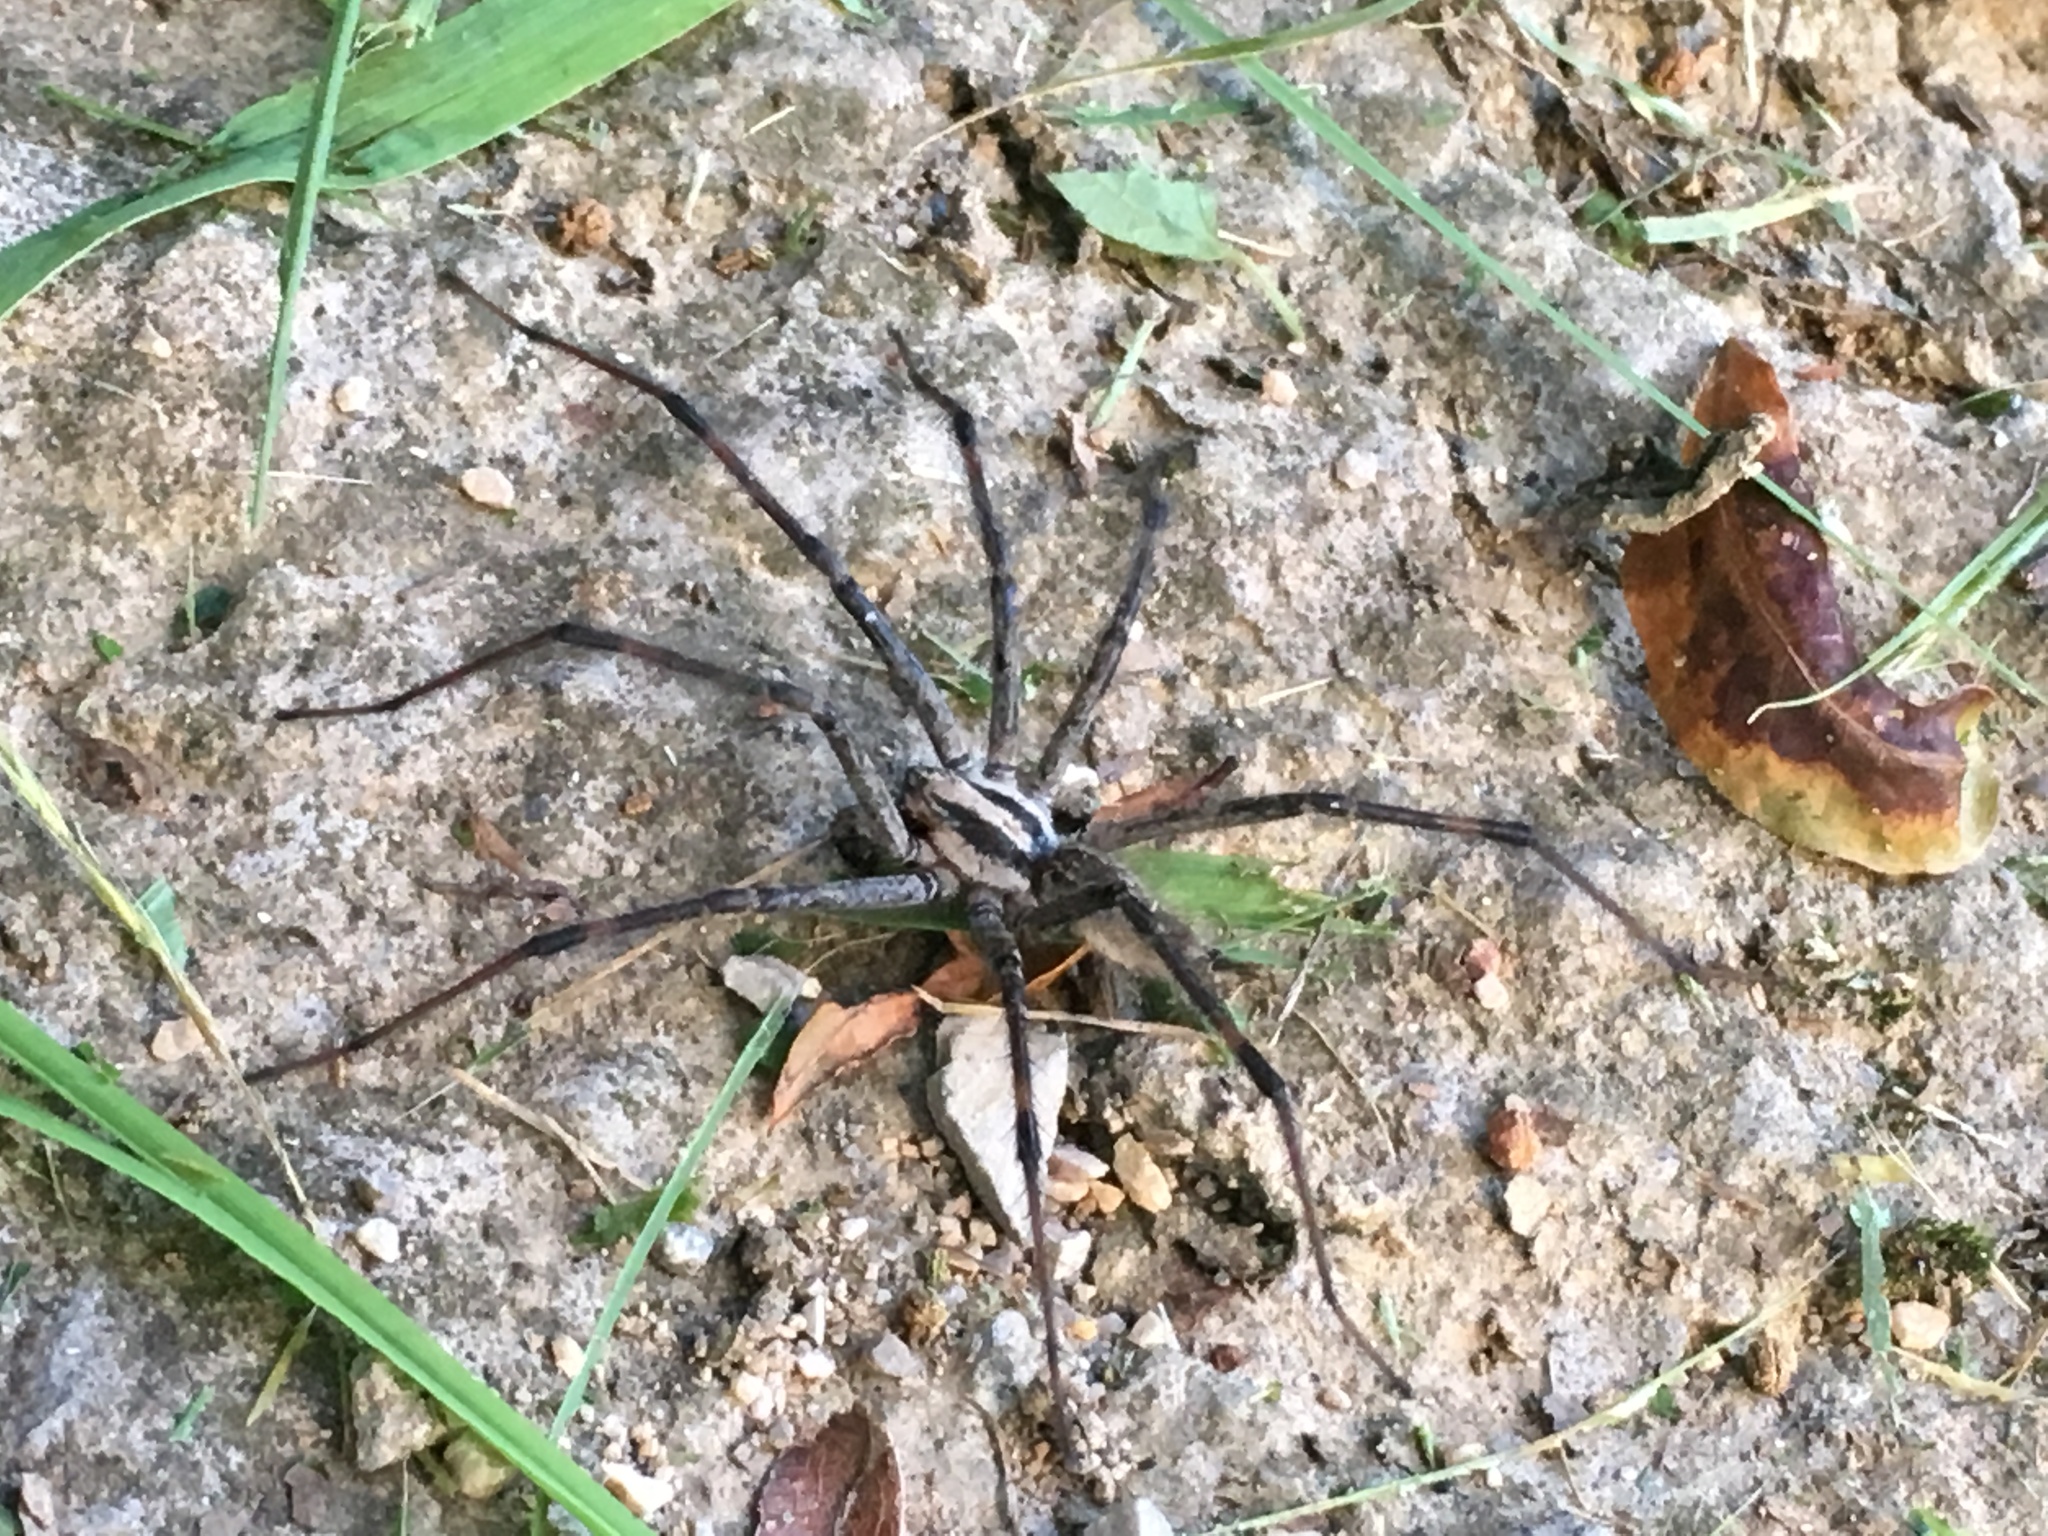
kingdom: Animalia
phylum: Arthropoda
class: Arachnida
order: Araneae
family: Agelenidae
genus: Agelenopsis
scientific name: Agelenopsis
